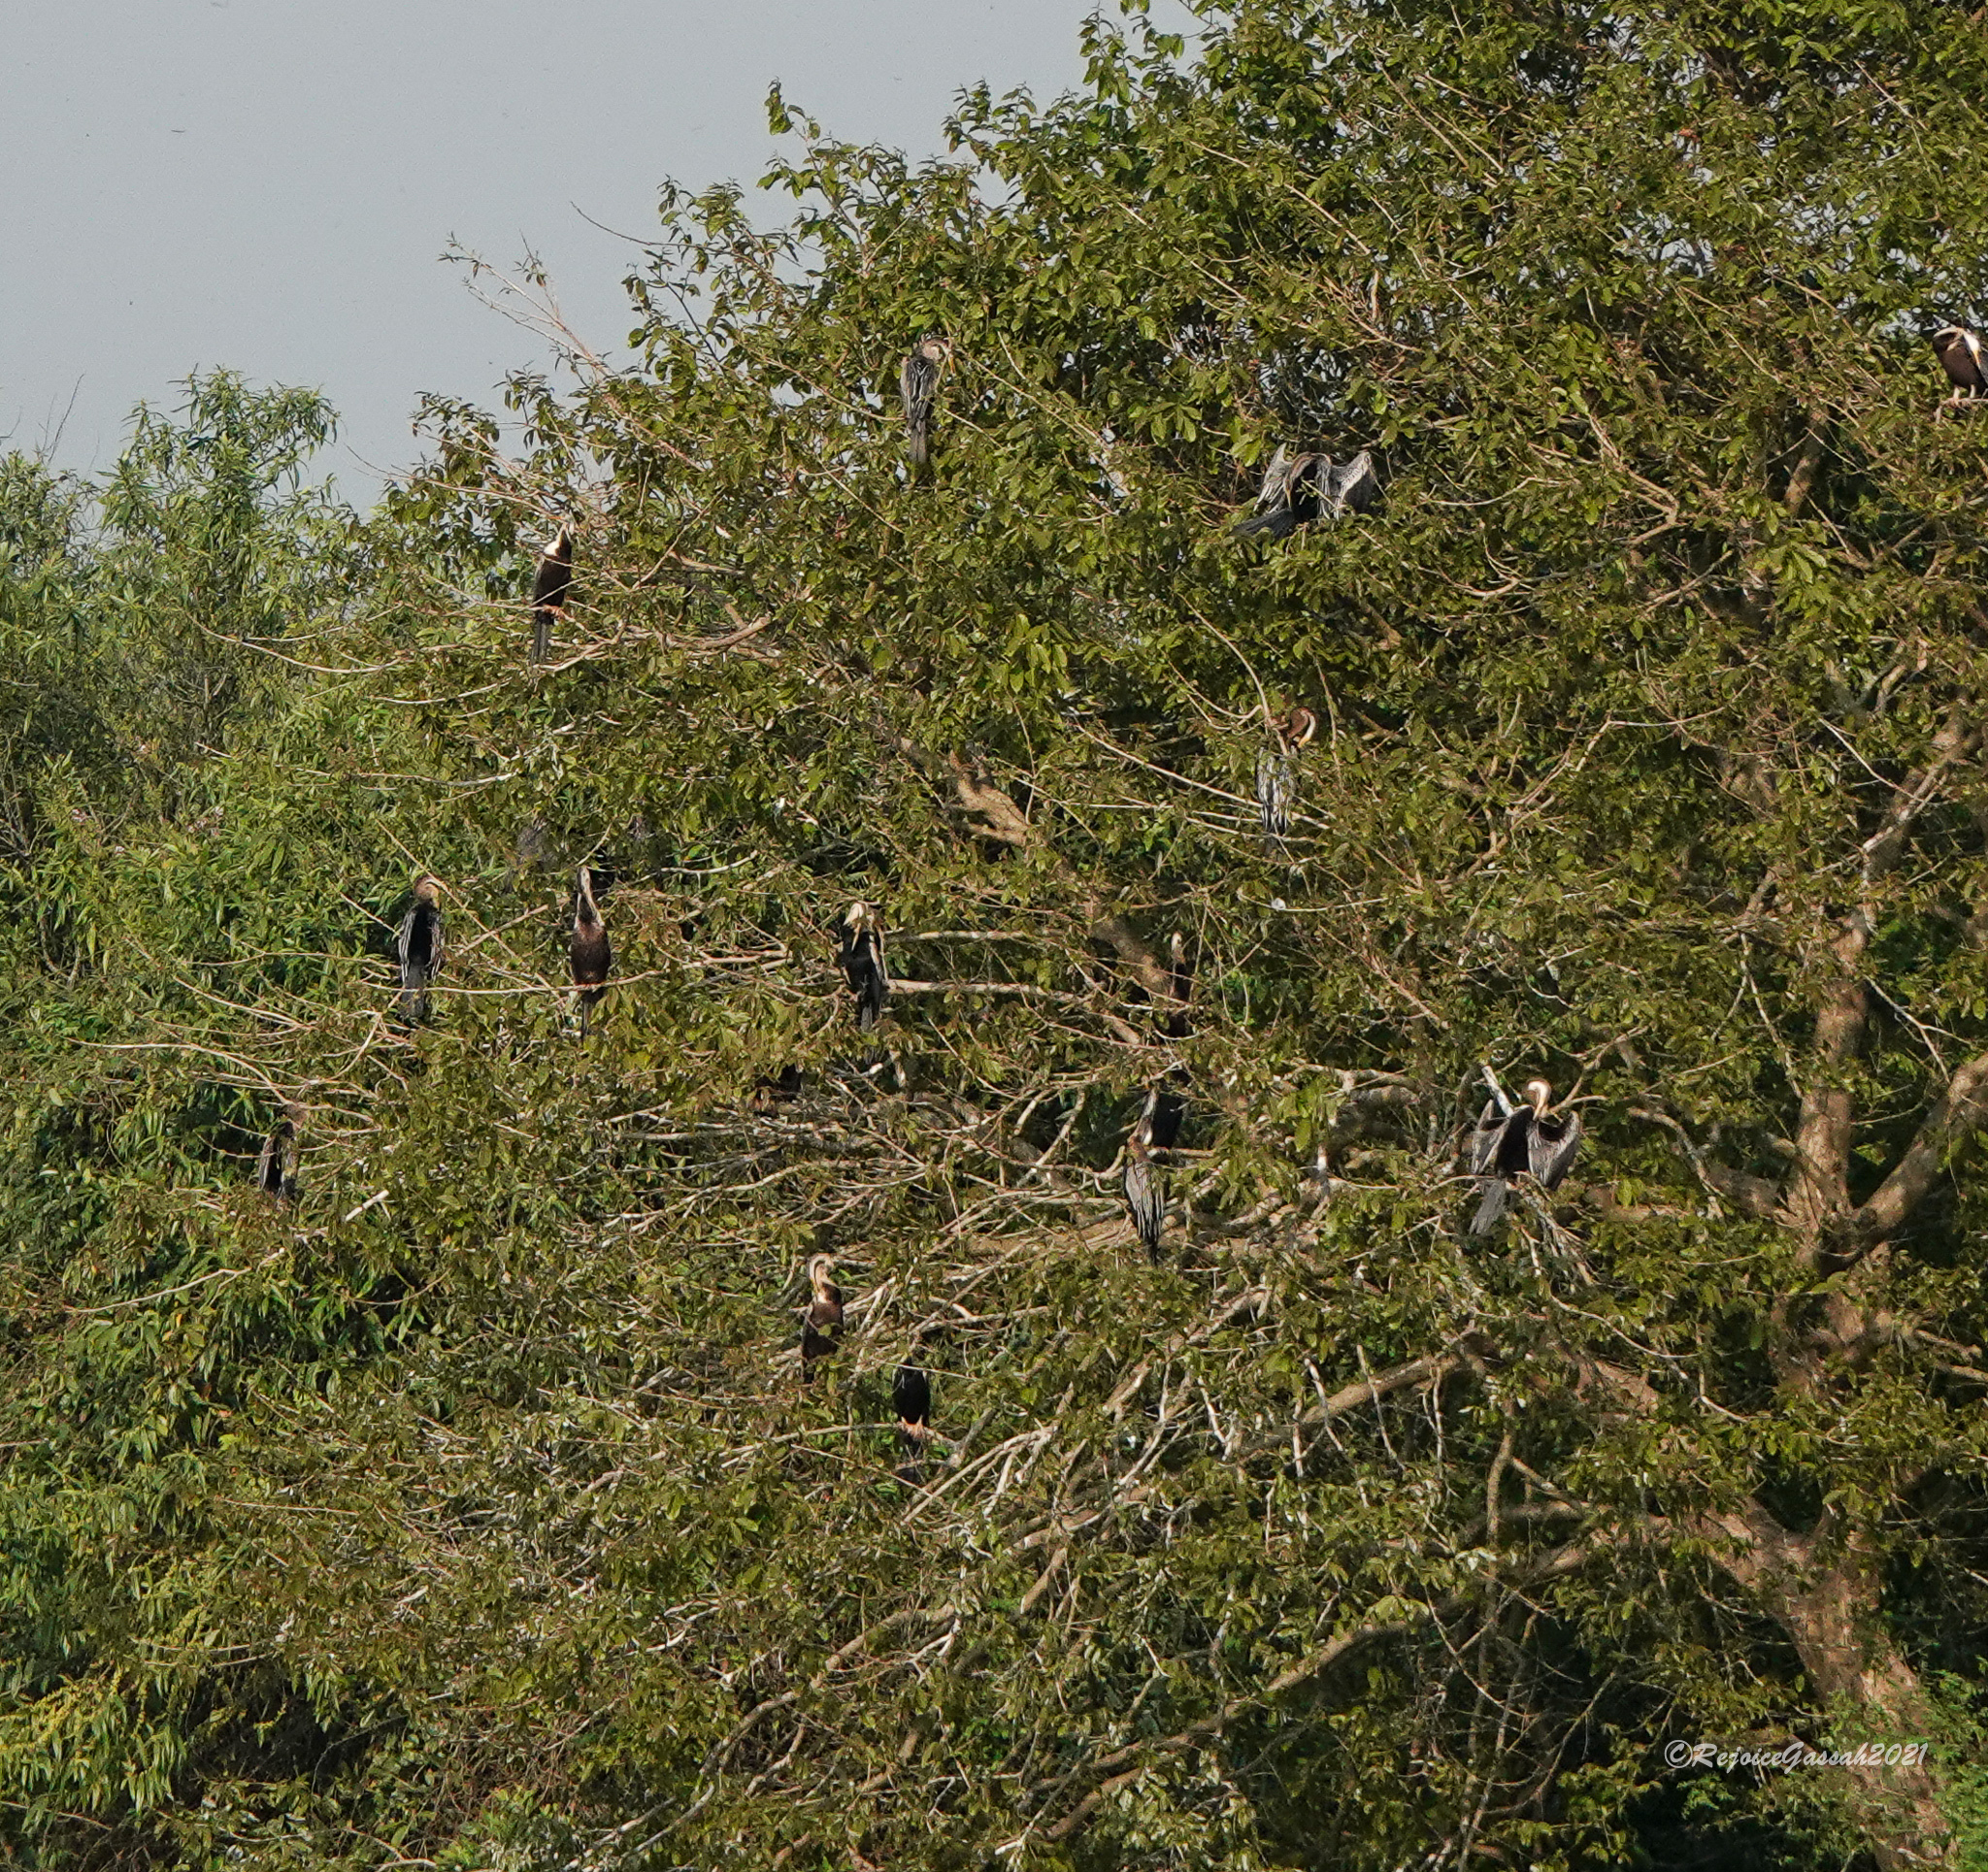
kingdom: Animalia
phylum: Chordata
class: Aves
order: Suliformes
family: Anhingidae
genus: Anhinga
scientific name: Anhinga melanogaster
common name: Oriental darter
